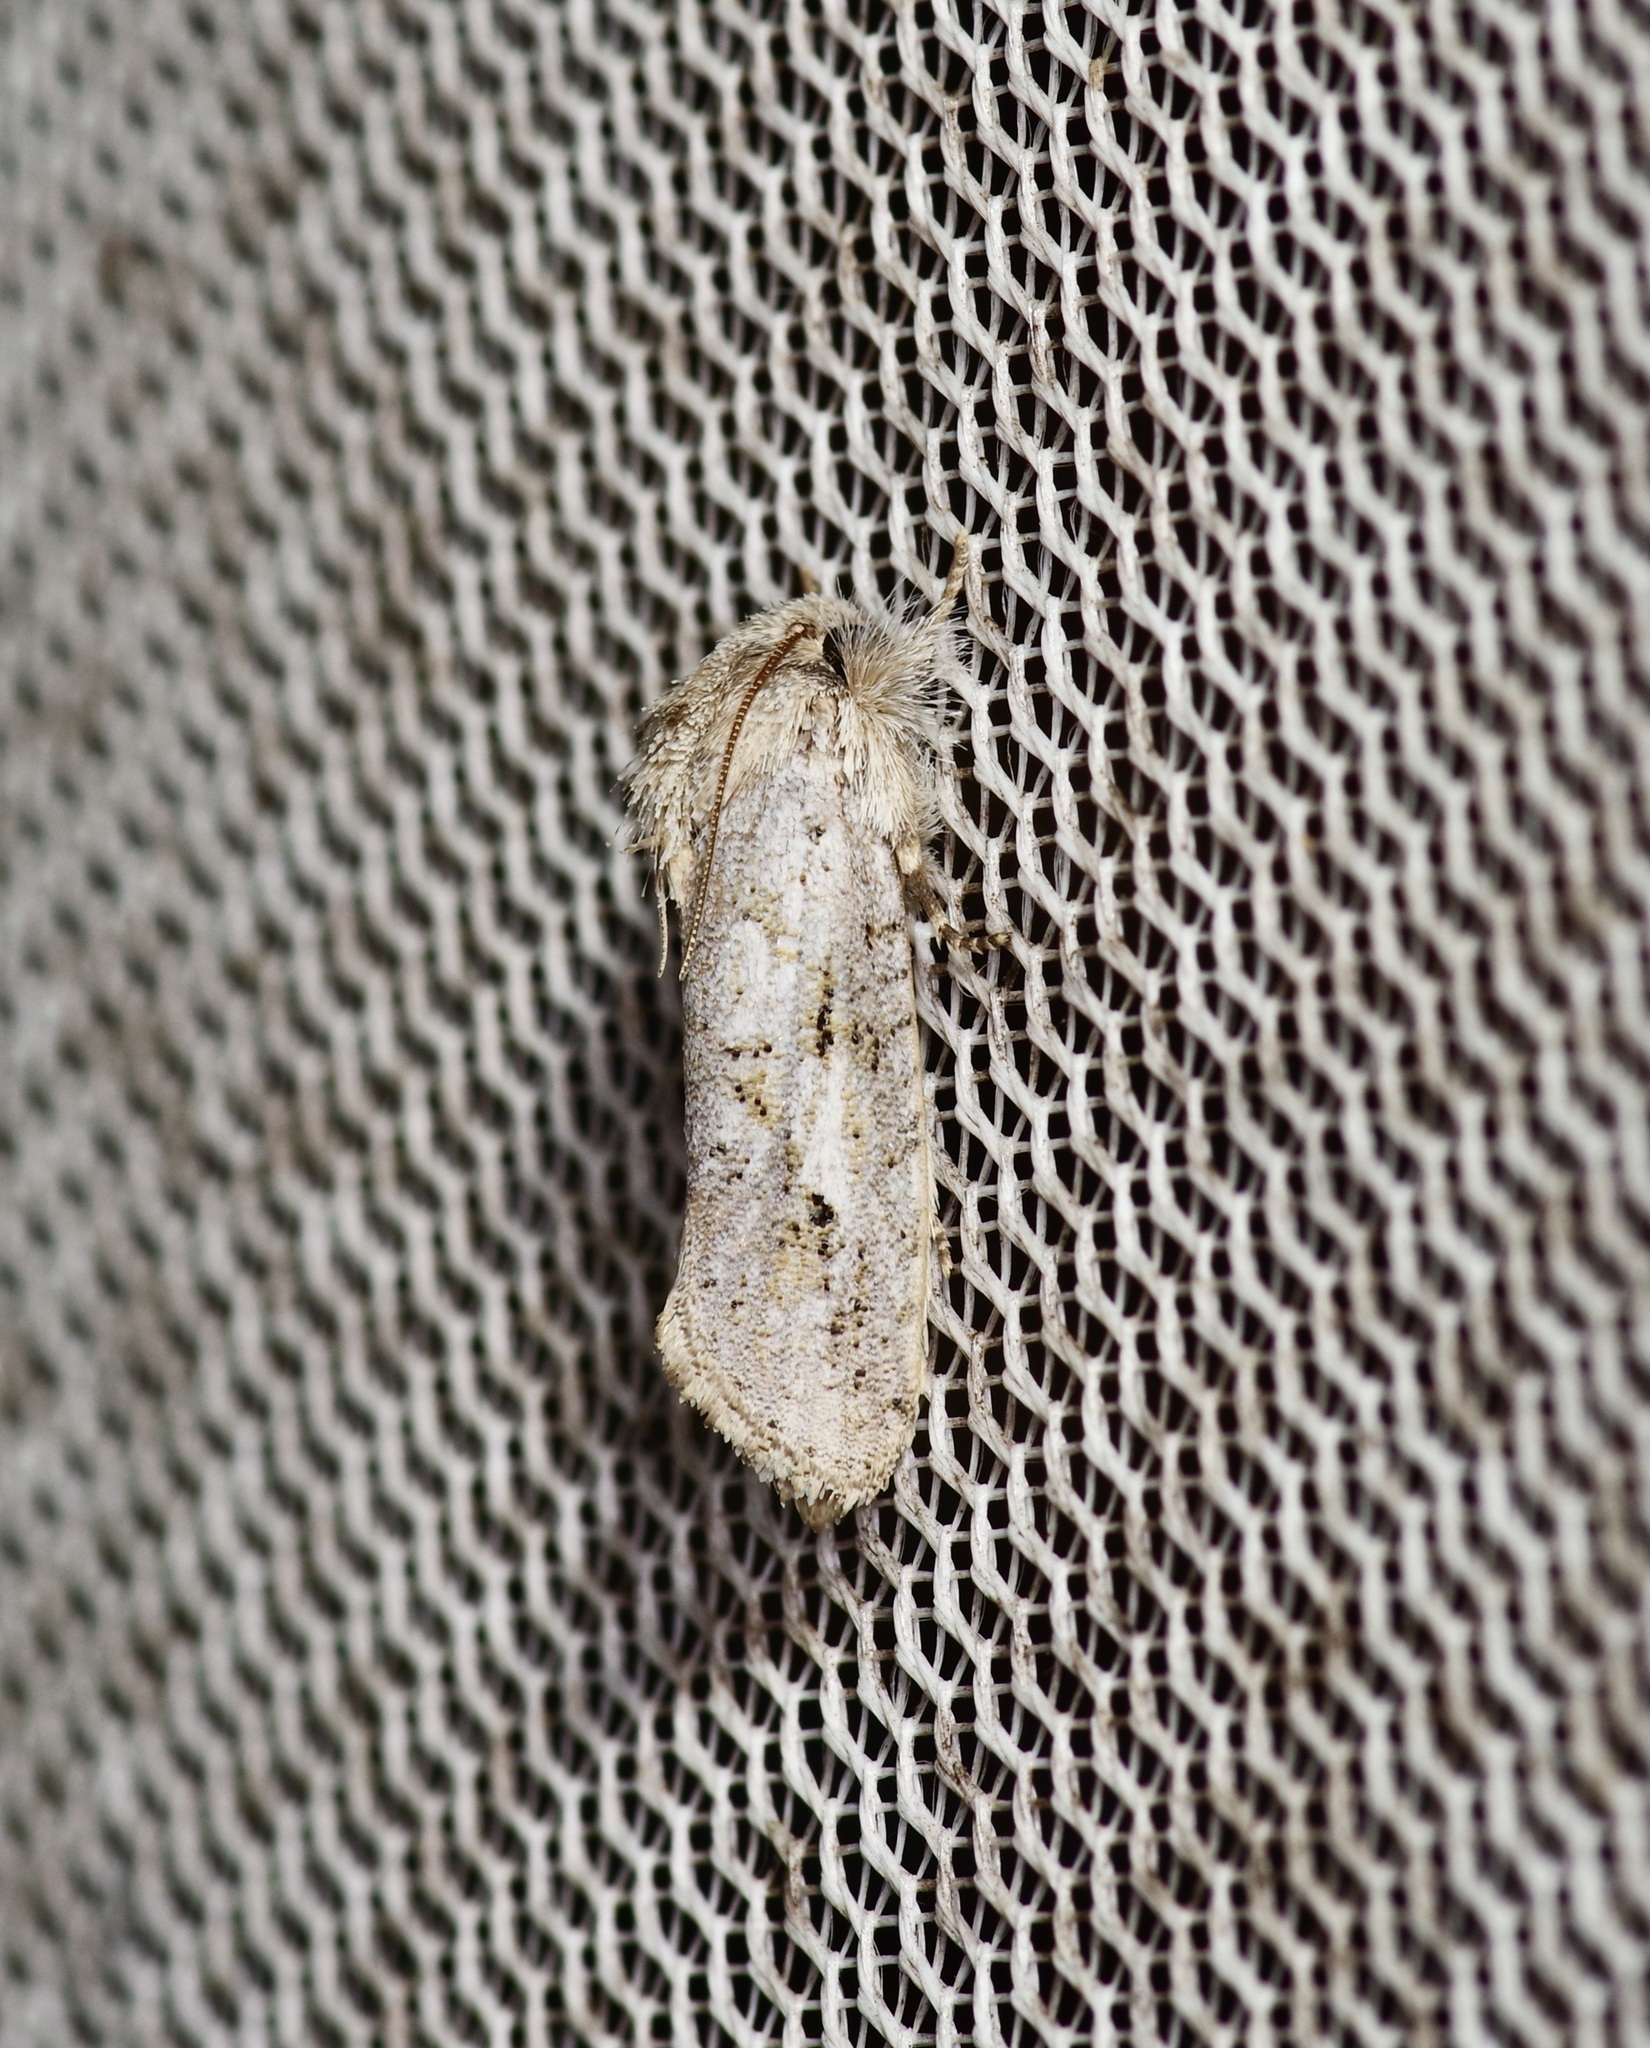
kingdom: Animalia
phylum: Arthropoda
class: Insecta
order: Lepidoptera
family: Tineidae
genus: Acrolophus
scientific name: Acrolophus griseus
